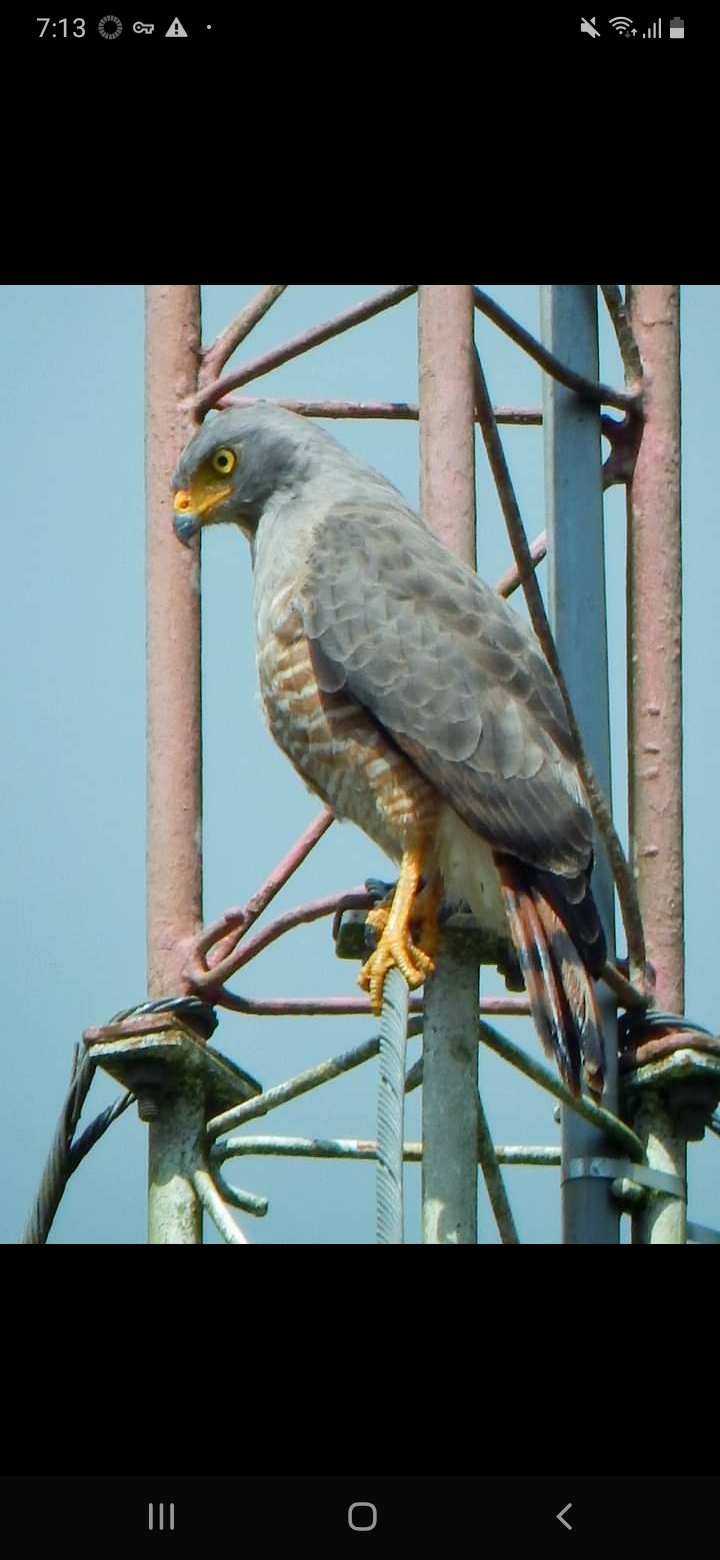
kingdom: Animalia
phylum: Chordata
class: Aves
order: Accipitriformes
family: Accipitridae
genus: Rupornis
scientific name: Rupornis magnirostris
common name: Roadside hawk
